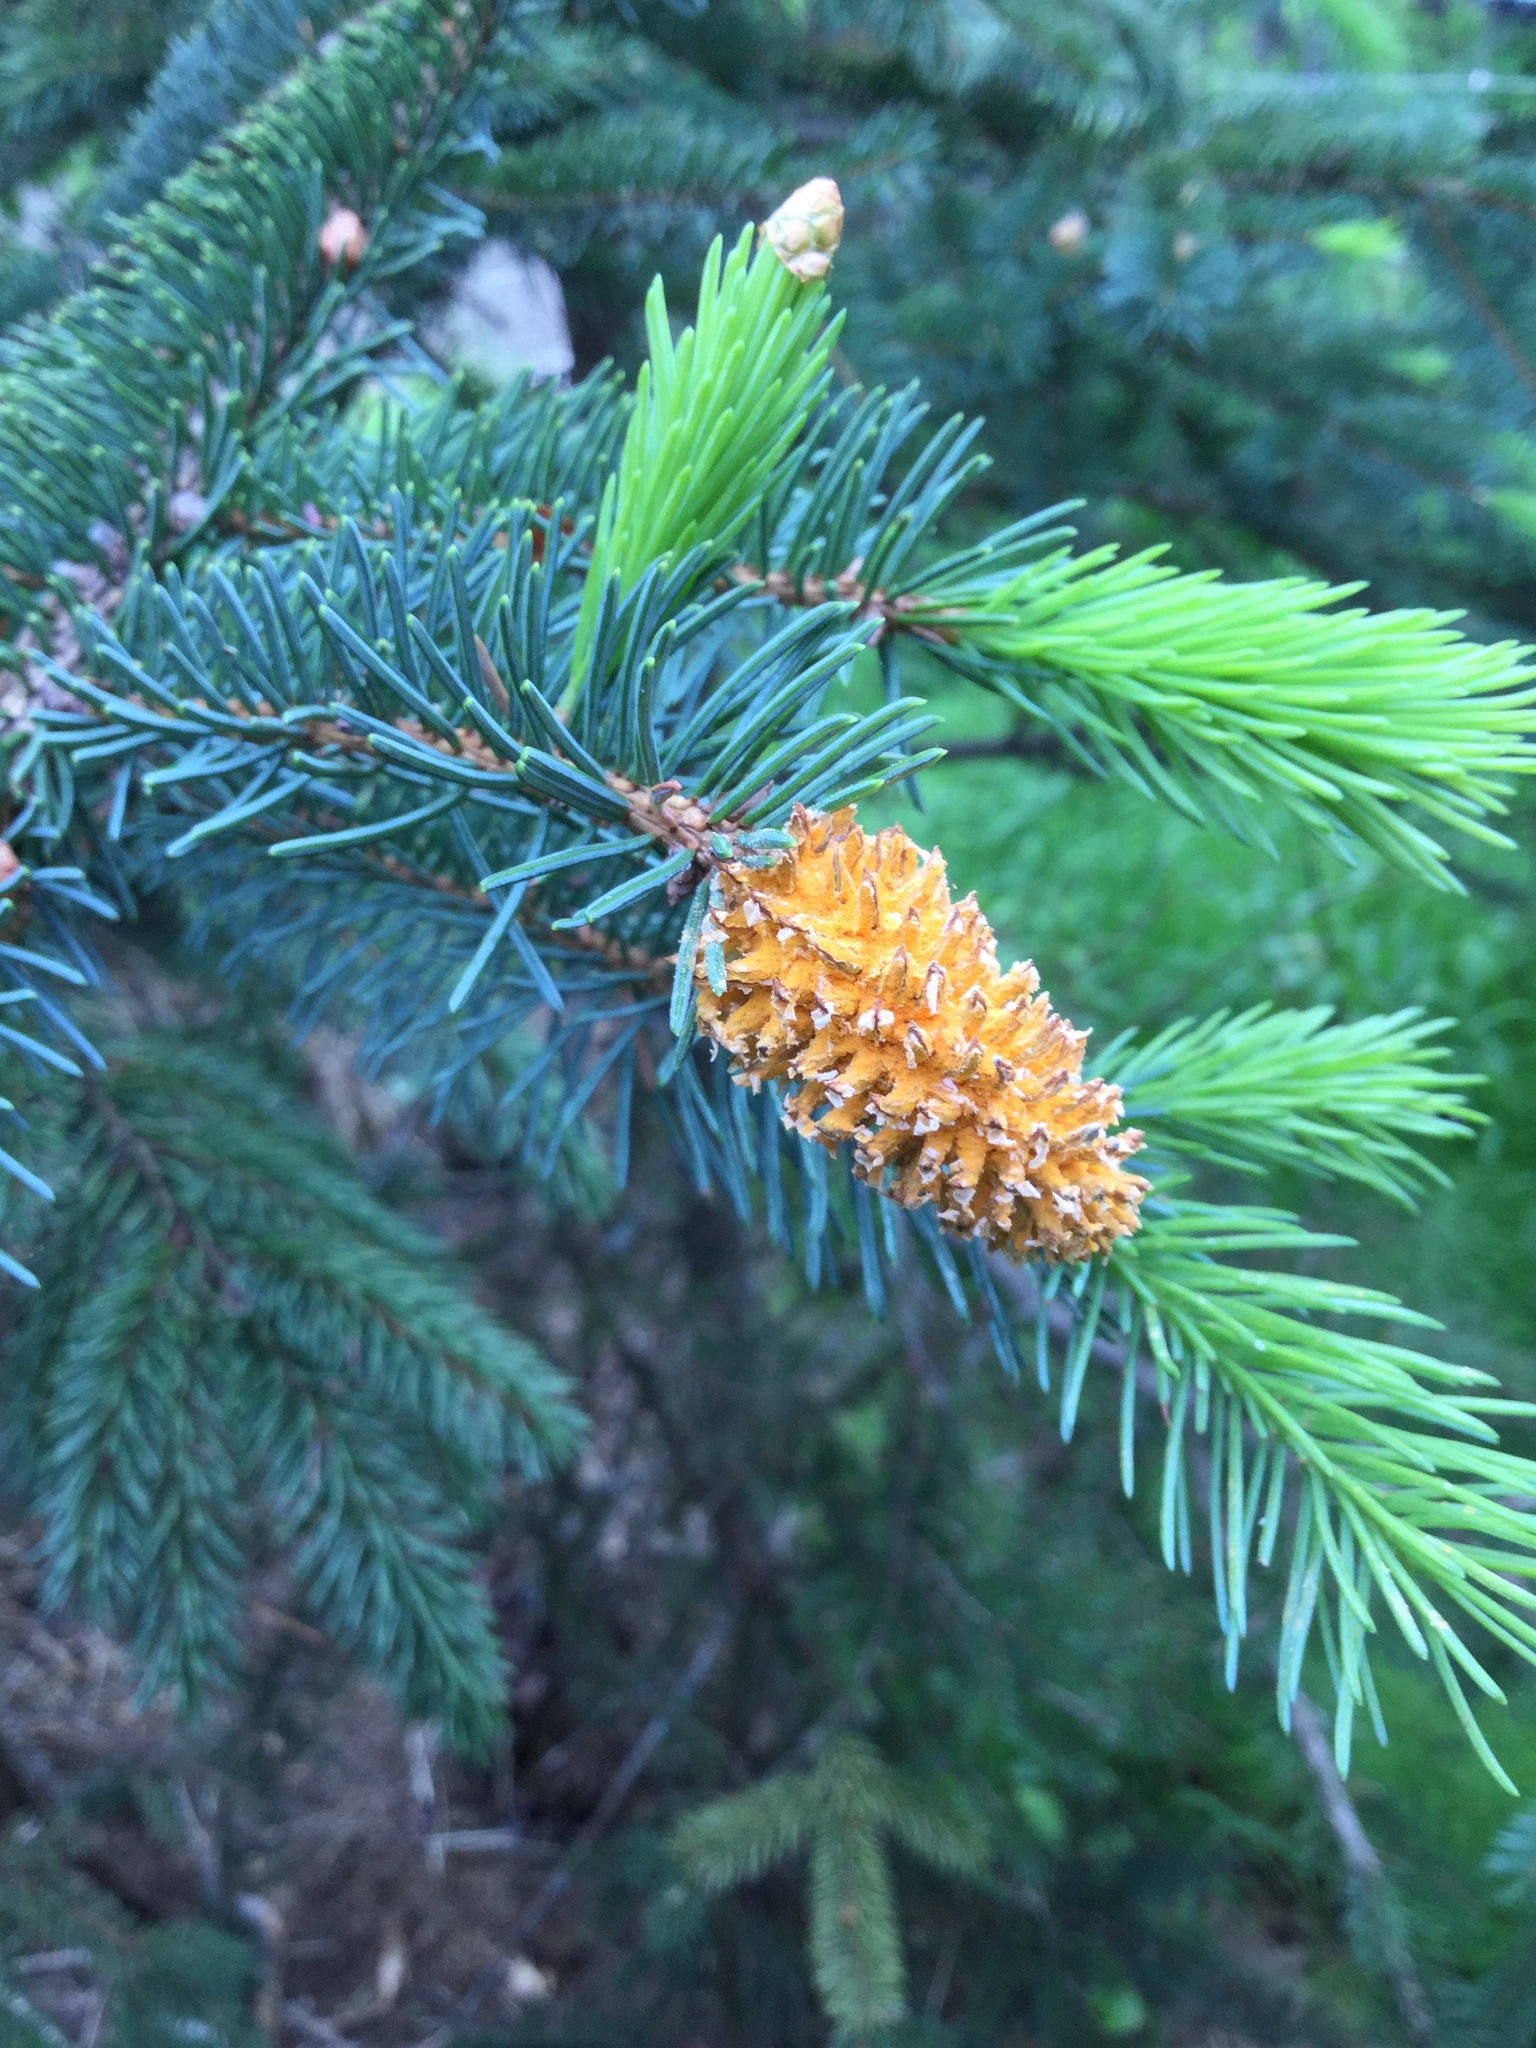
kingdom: Fungi
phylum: Basidiomycota
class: Pucciniomycetes
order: Pucciniales
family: Coleosporiaceae
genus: Chrysomyxa
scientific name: Chrysomyxa woroninii
